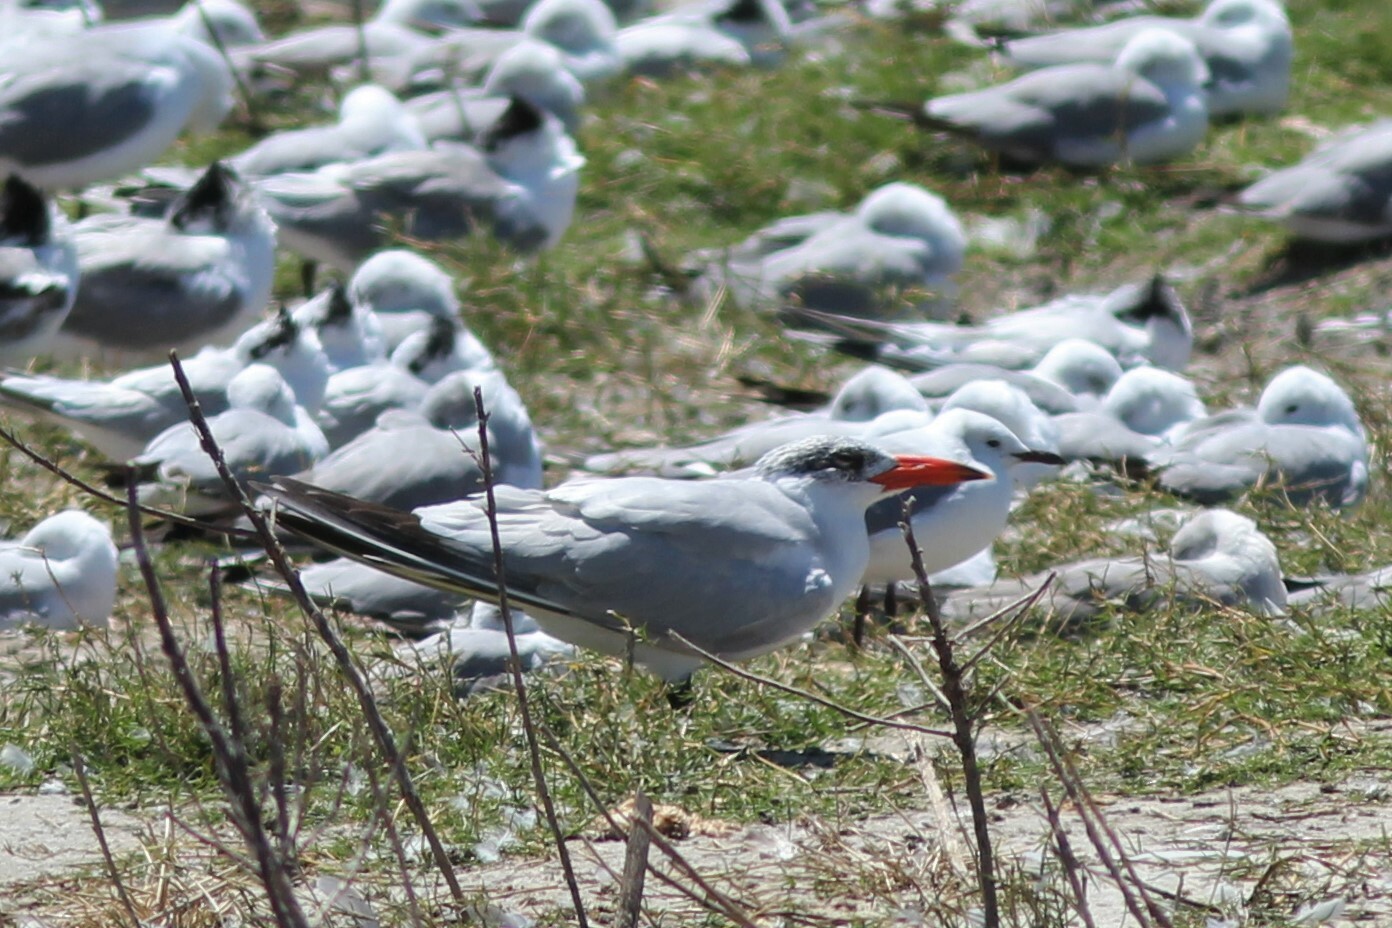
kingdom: Animalia
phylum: Chordata
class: Aves
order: Charadriiformes
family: Laridae
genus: Hydroprogne
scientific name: Hydroprogne caspia
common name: Caspian tern
